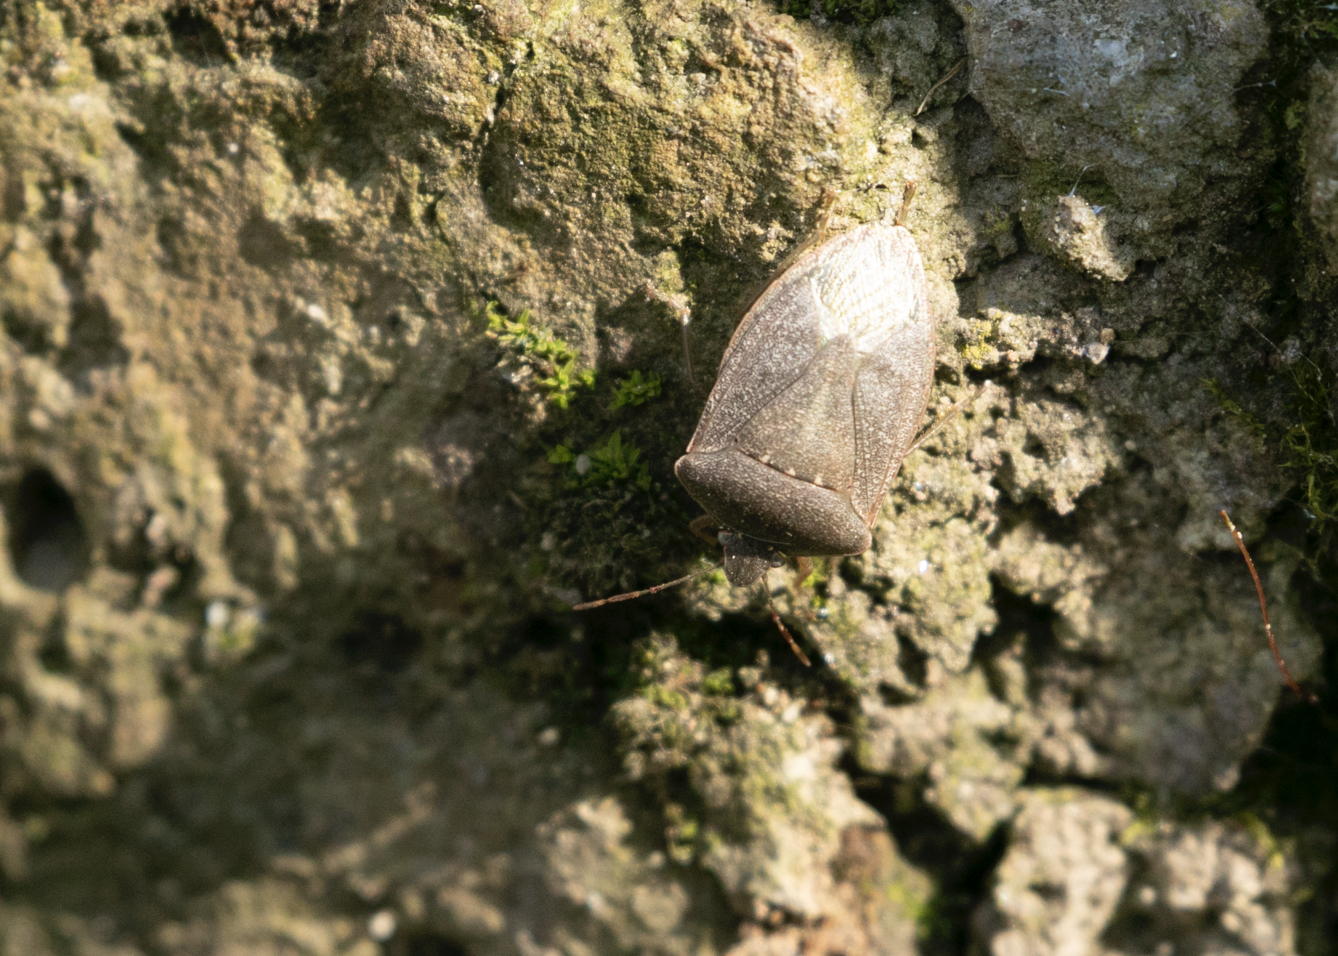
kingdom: Animalia
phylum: Arthropoda
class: Insecta
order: Hemiptera
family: Pentatomidae
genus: Nezara
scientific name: Nezara viridula
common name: Southern green stink bug
